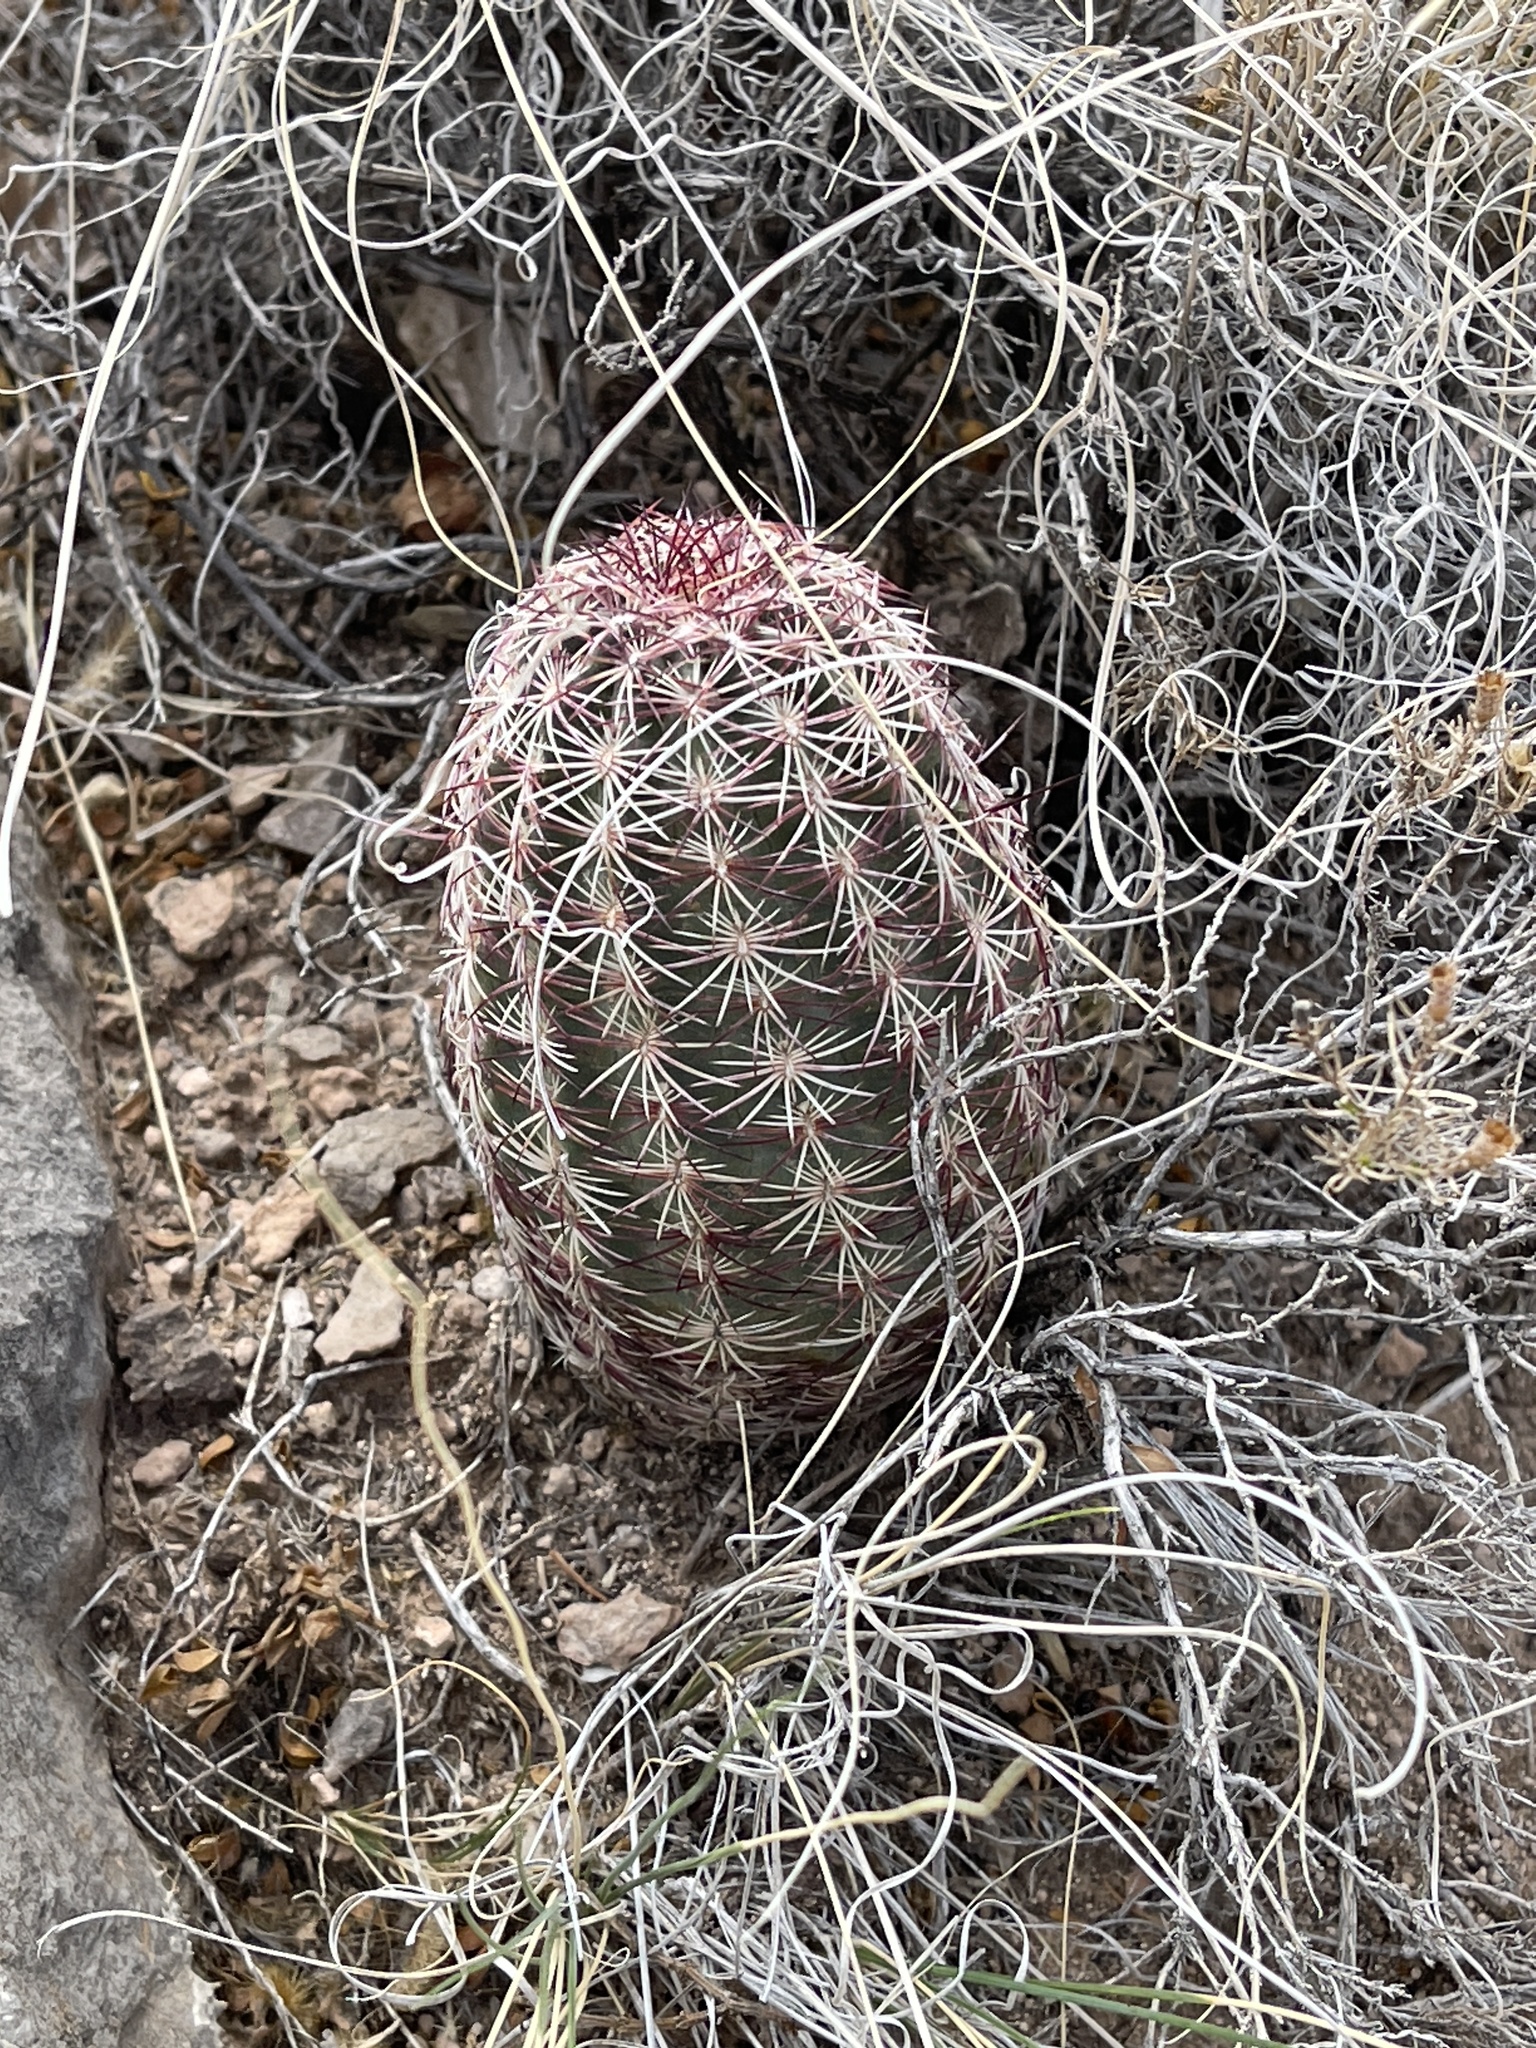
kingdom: Plantae
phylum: Tracheophyta
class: Magnoliopsida
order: Caryophyllales
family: Cactaceae
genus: Echinocereus
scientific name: Echinocereus viridiflorus
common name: Nylon hedgehog cactus
